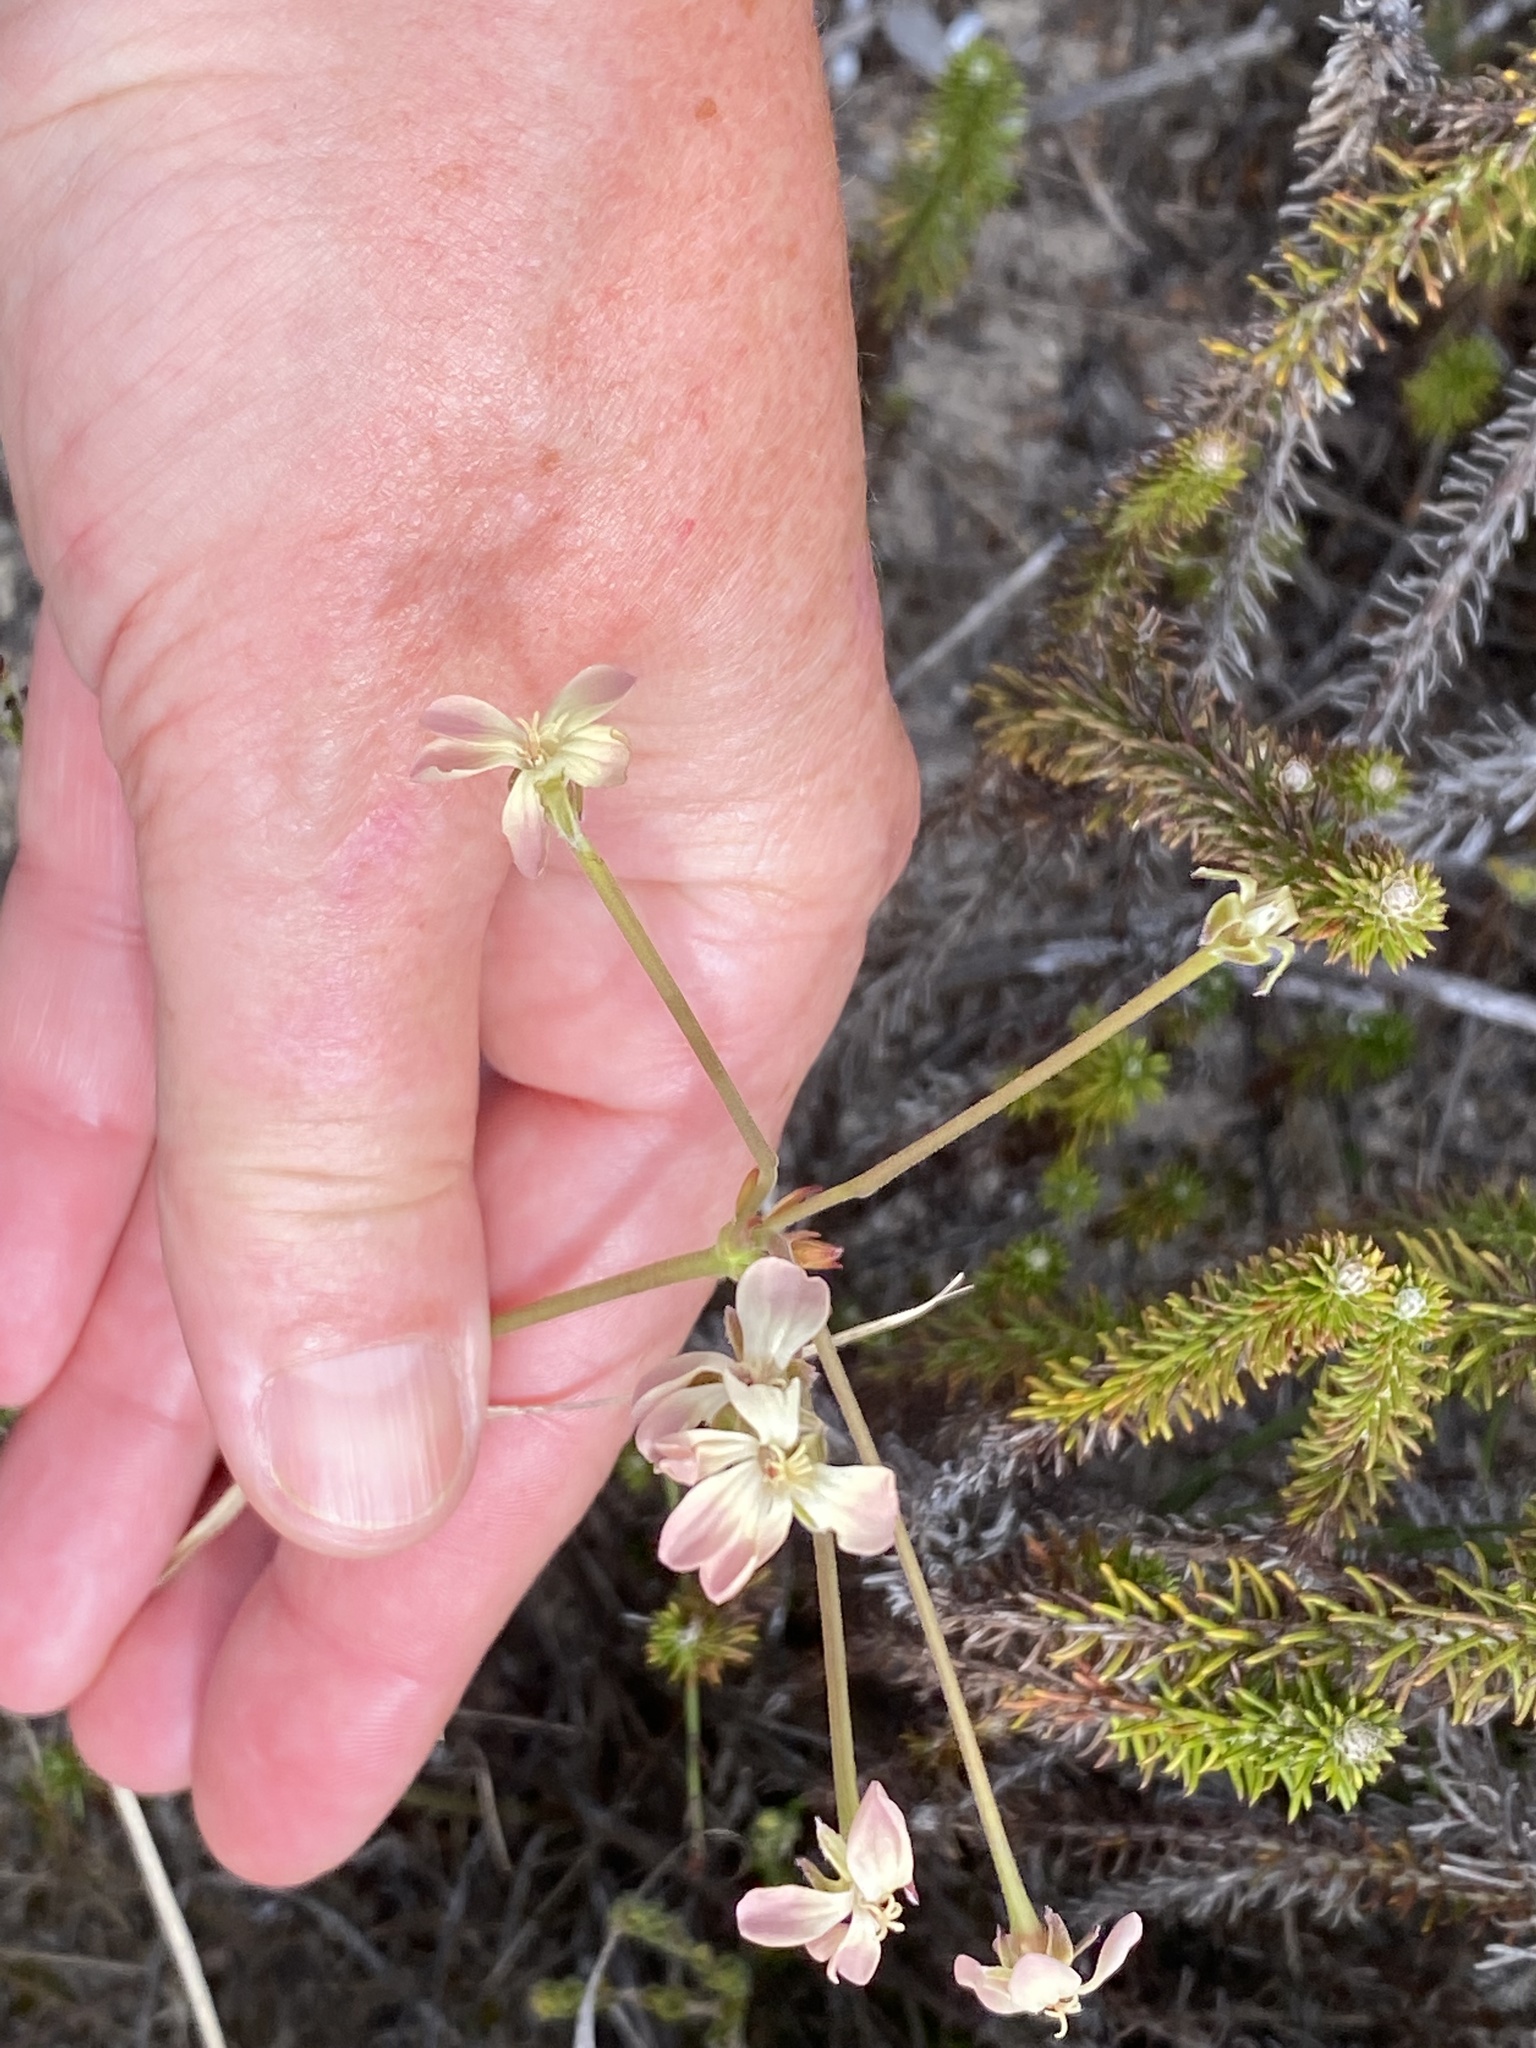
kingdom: Plantae
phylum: Tracheophyta
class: Magnoliopsida
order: Geraniales
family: Geraniaceae
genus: Pelargonium
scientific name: Pelargonium pillansii
